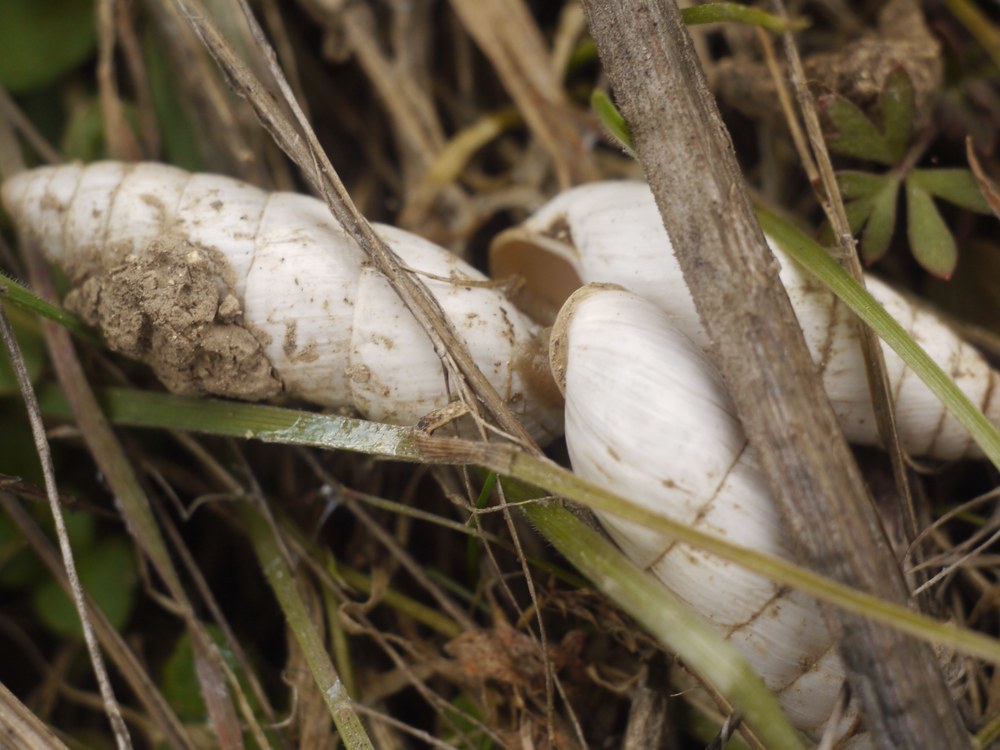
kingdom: Animalia
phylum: Mollusca
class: Gastropoda
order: Stylommatophora
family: Enidae
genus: Brephulopsis
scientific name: Brephulopsis cylindrica
